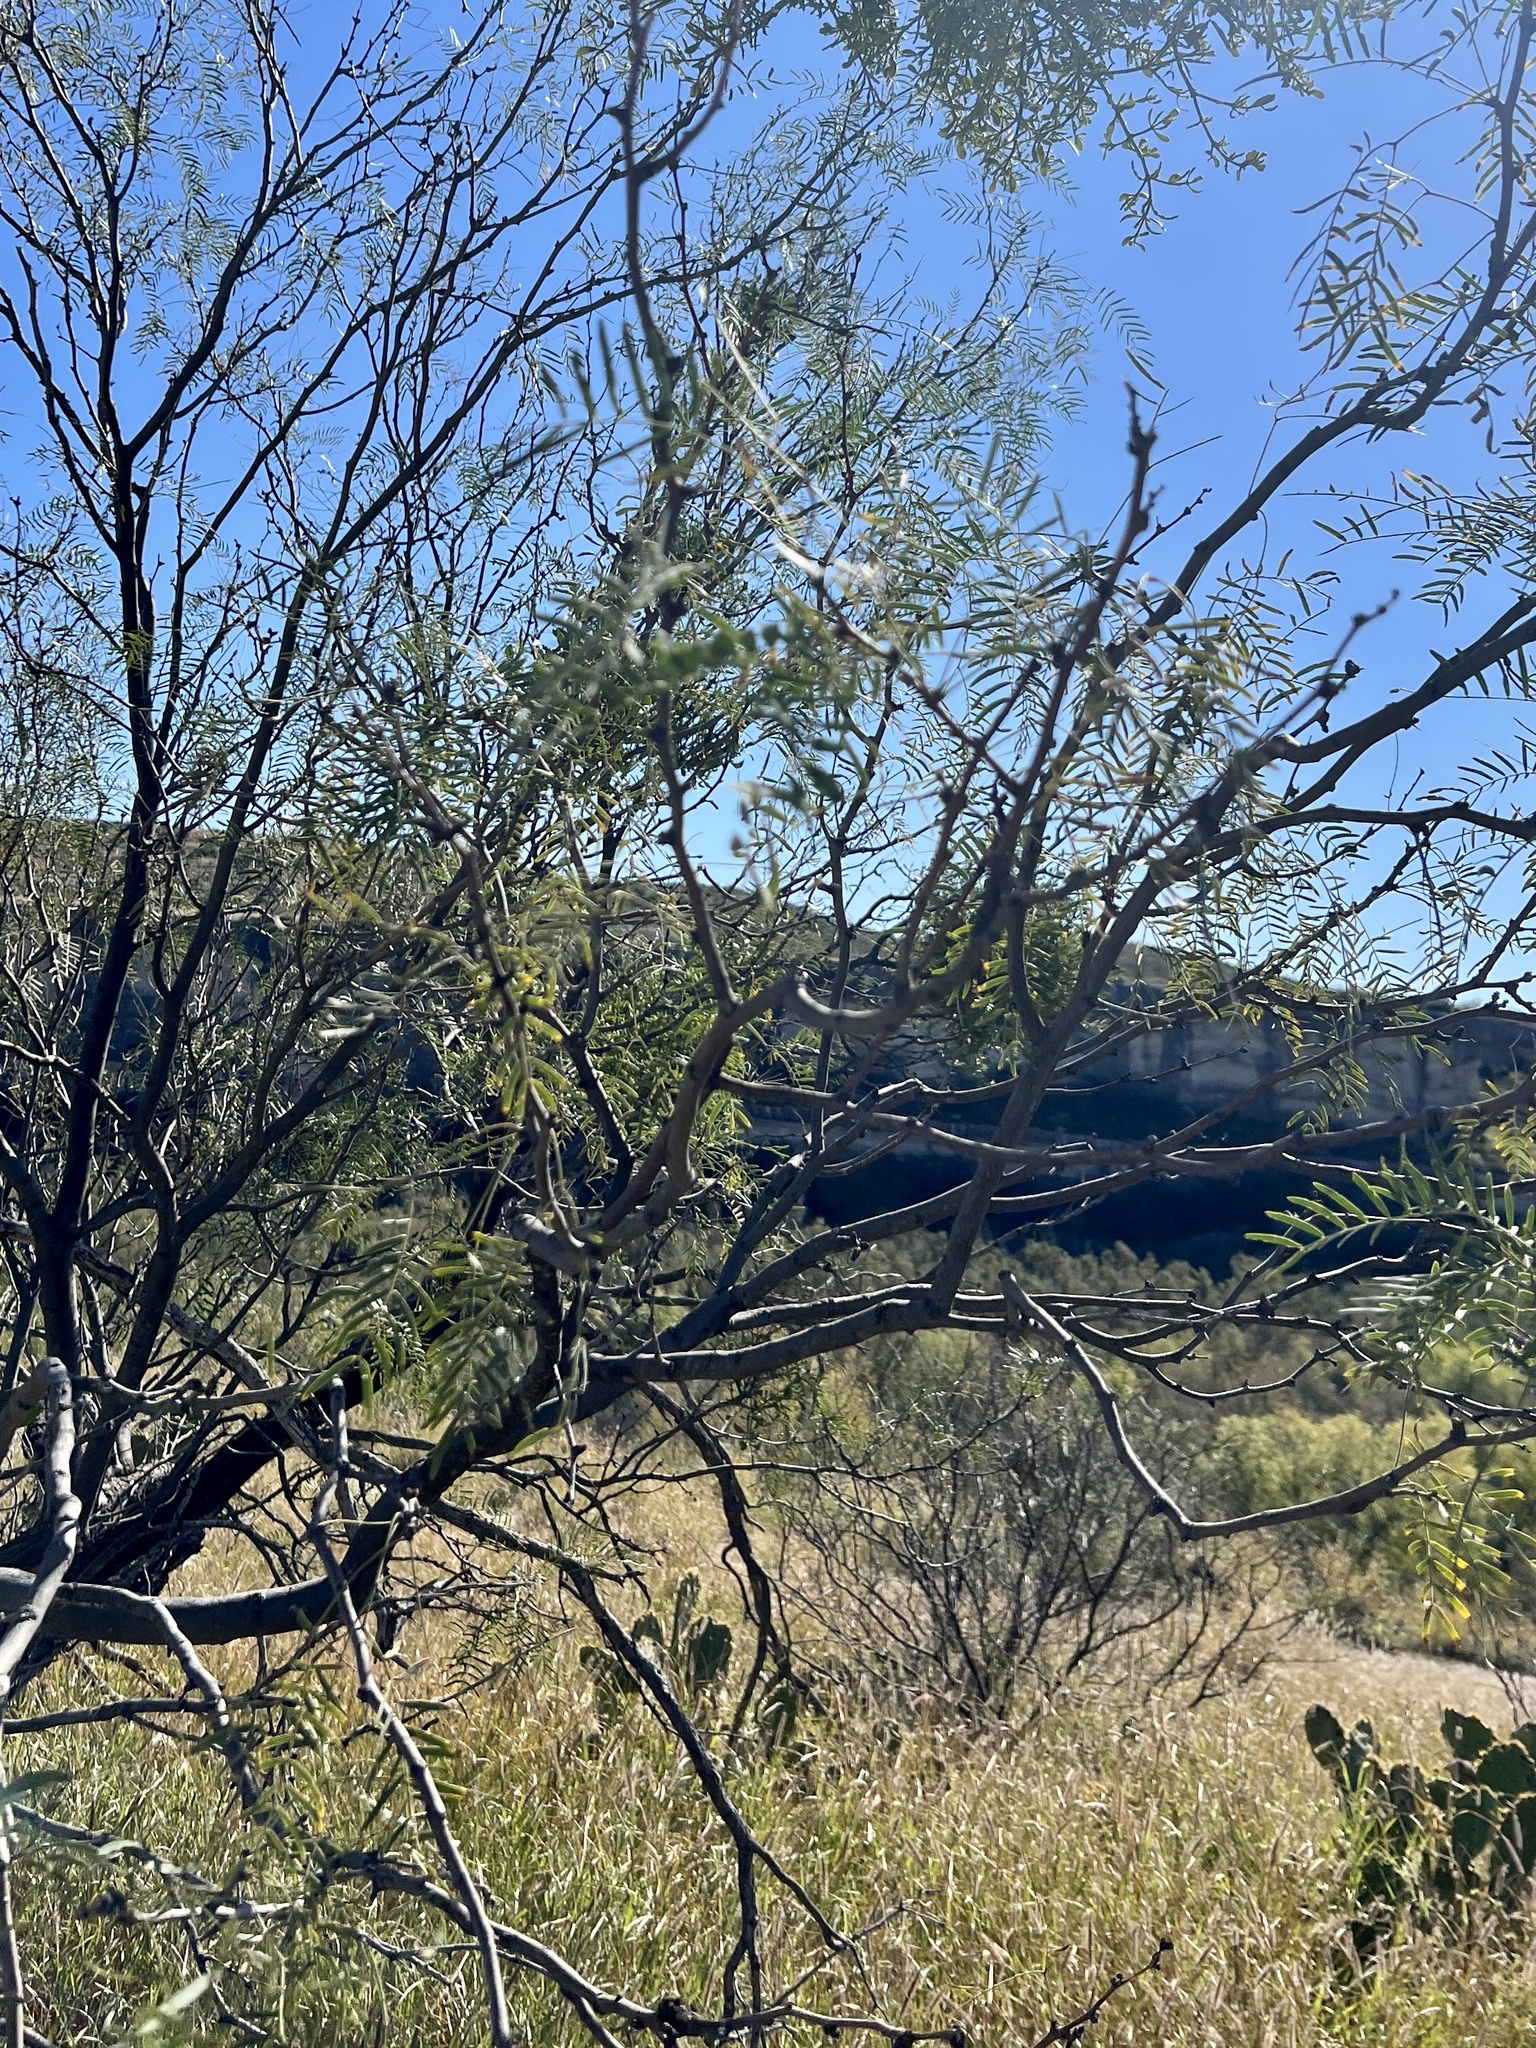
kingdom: Plantae
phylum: Tracheophyta
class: Magnoliopsida
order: Fabales
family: Fabaceae
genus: Prosopis
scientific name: Prosopis glandulosa
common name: Honey mesquite
